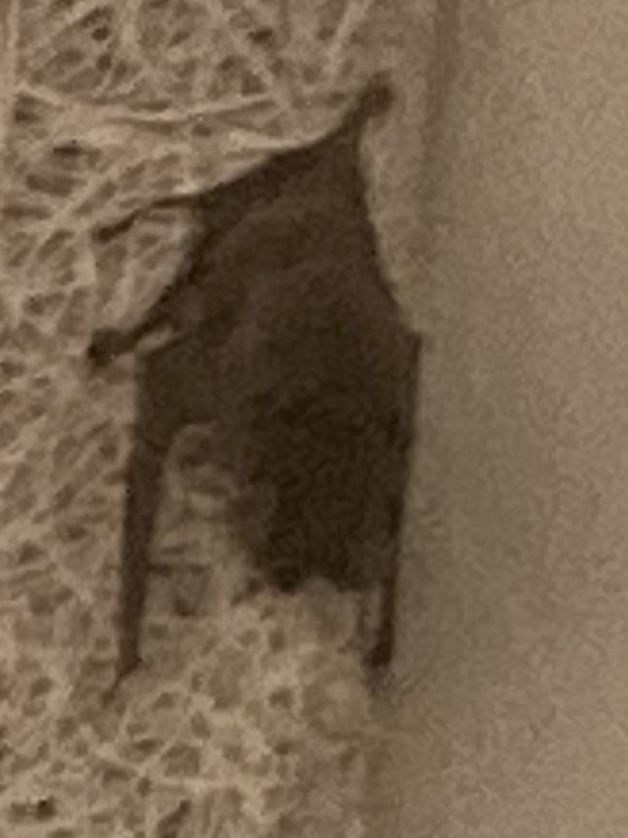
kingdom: Animalia
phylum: Chordata
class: Mammalia
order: Chiroptera
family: Molossidae
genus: Tadarida
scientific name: Tadarida brasiliensis
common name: Mexican free-tailed bat
